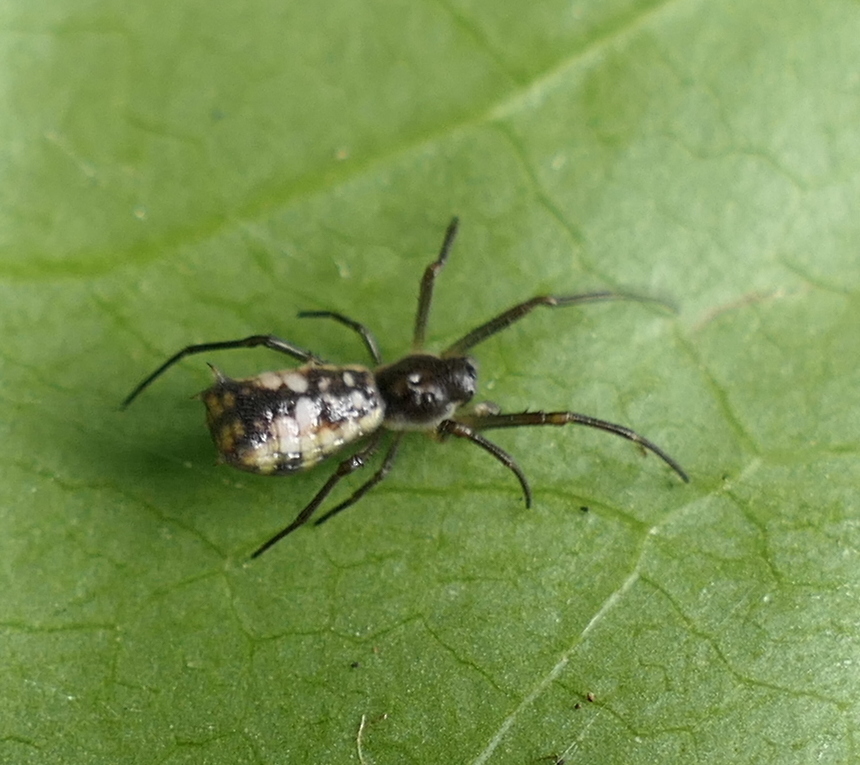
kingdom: Animalia
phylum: Arthropoda
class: Arachnida
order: Araneae
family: Araneidae
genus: Micrathena
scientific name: Micrathena fissispina
